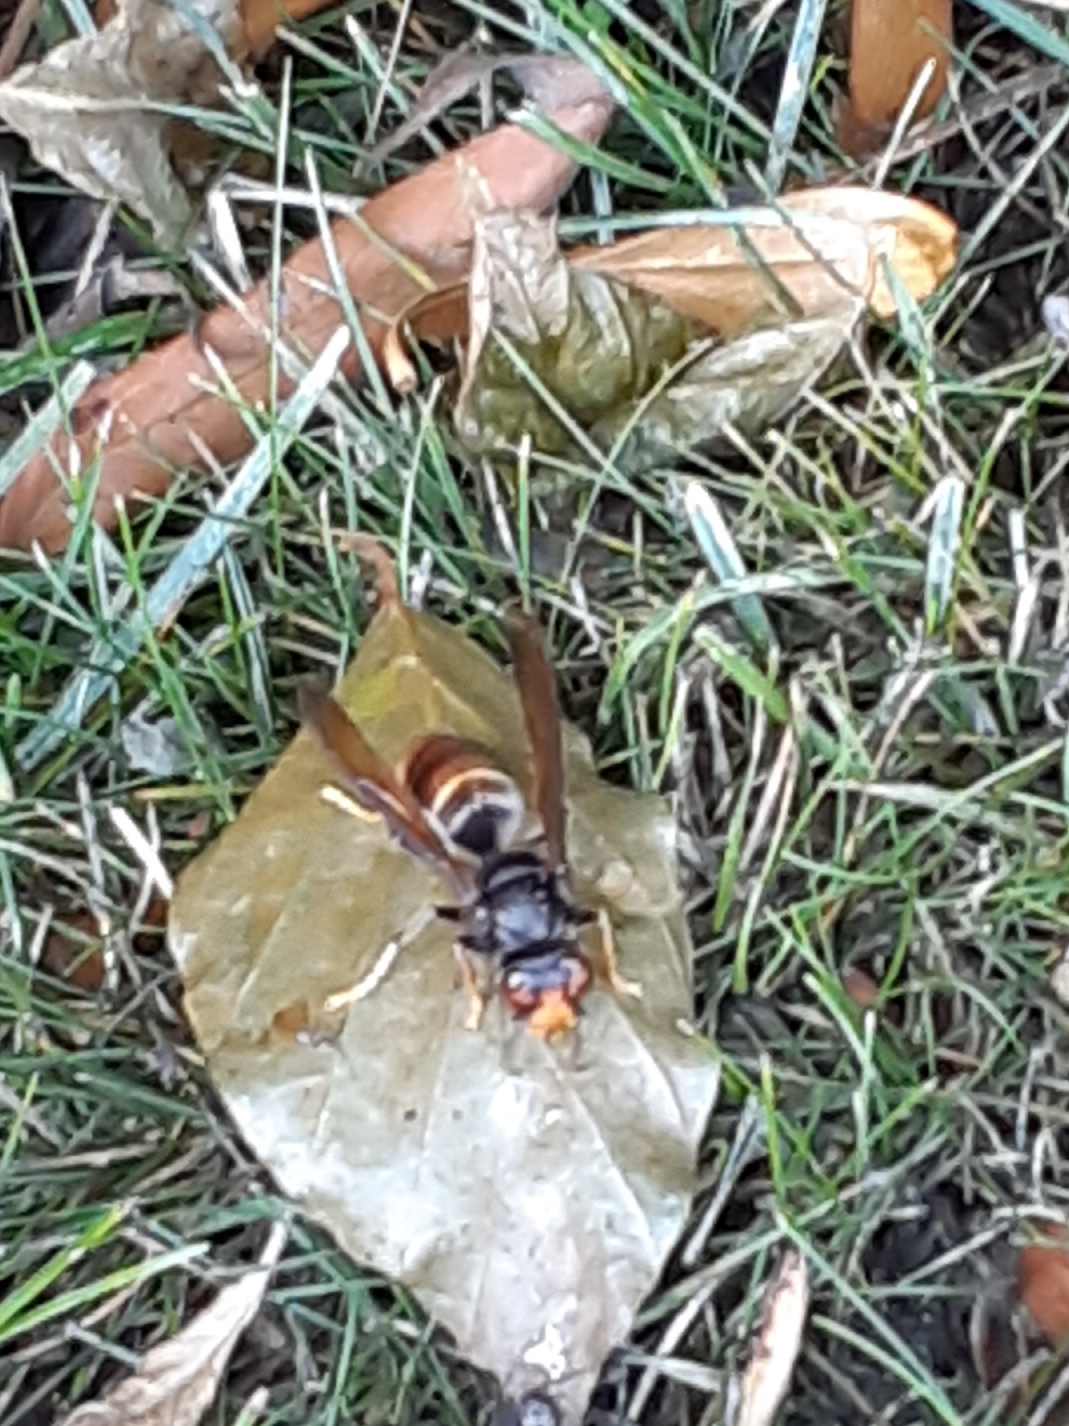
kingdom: Animalia
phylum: Arthropoda
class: Insecta
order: Hymenoptera
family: Vespidae
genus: Vespa
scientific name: Vespa velutina
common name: Asian hornet
